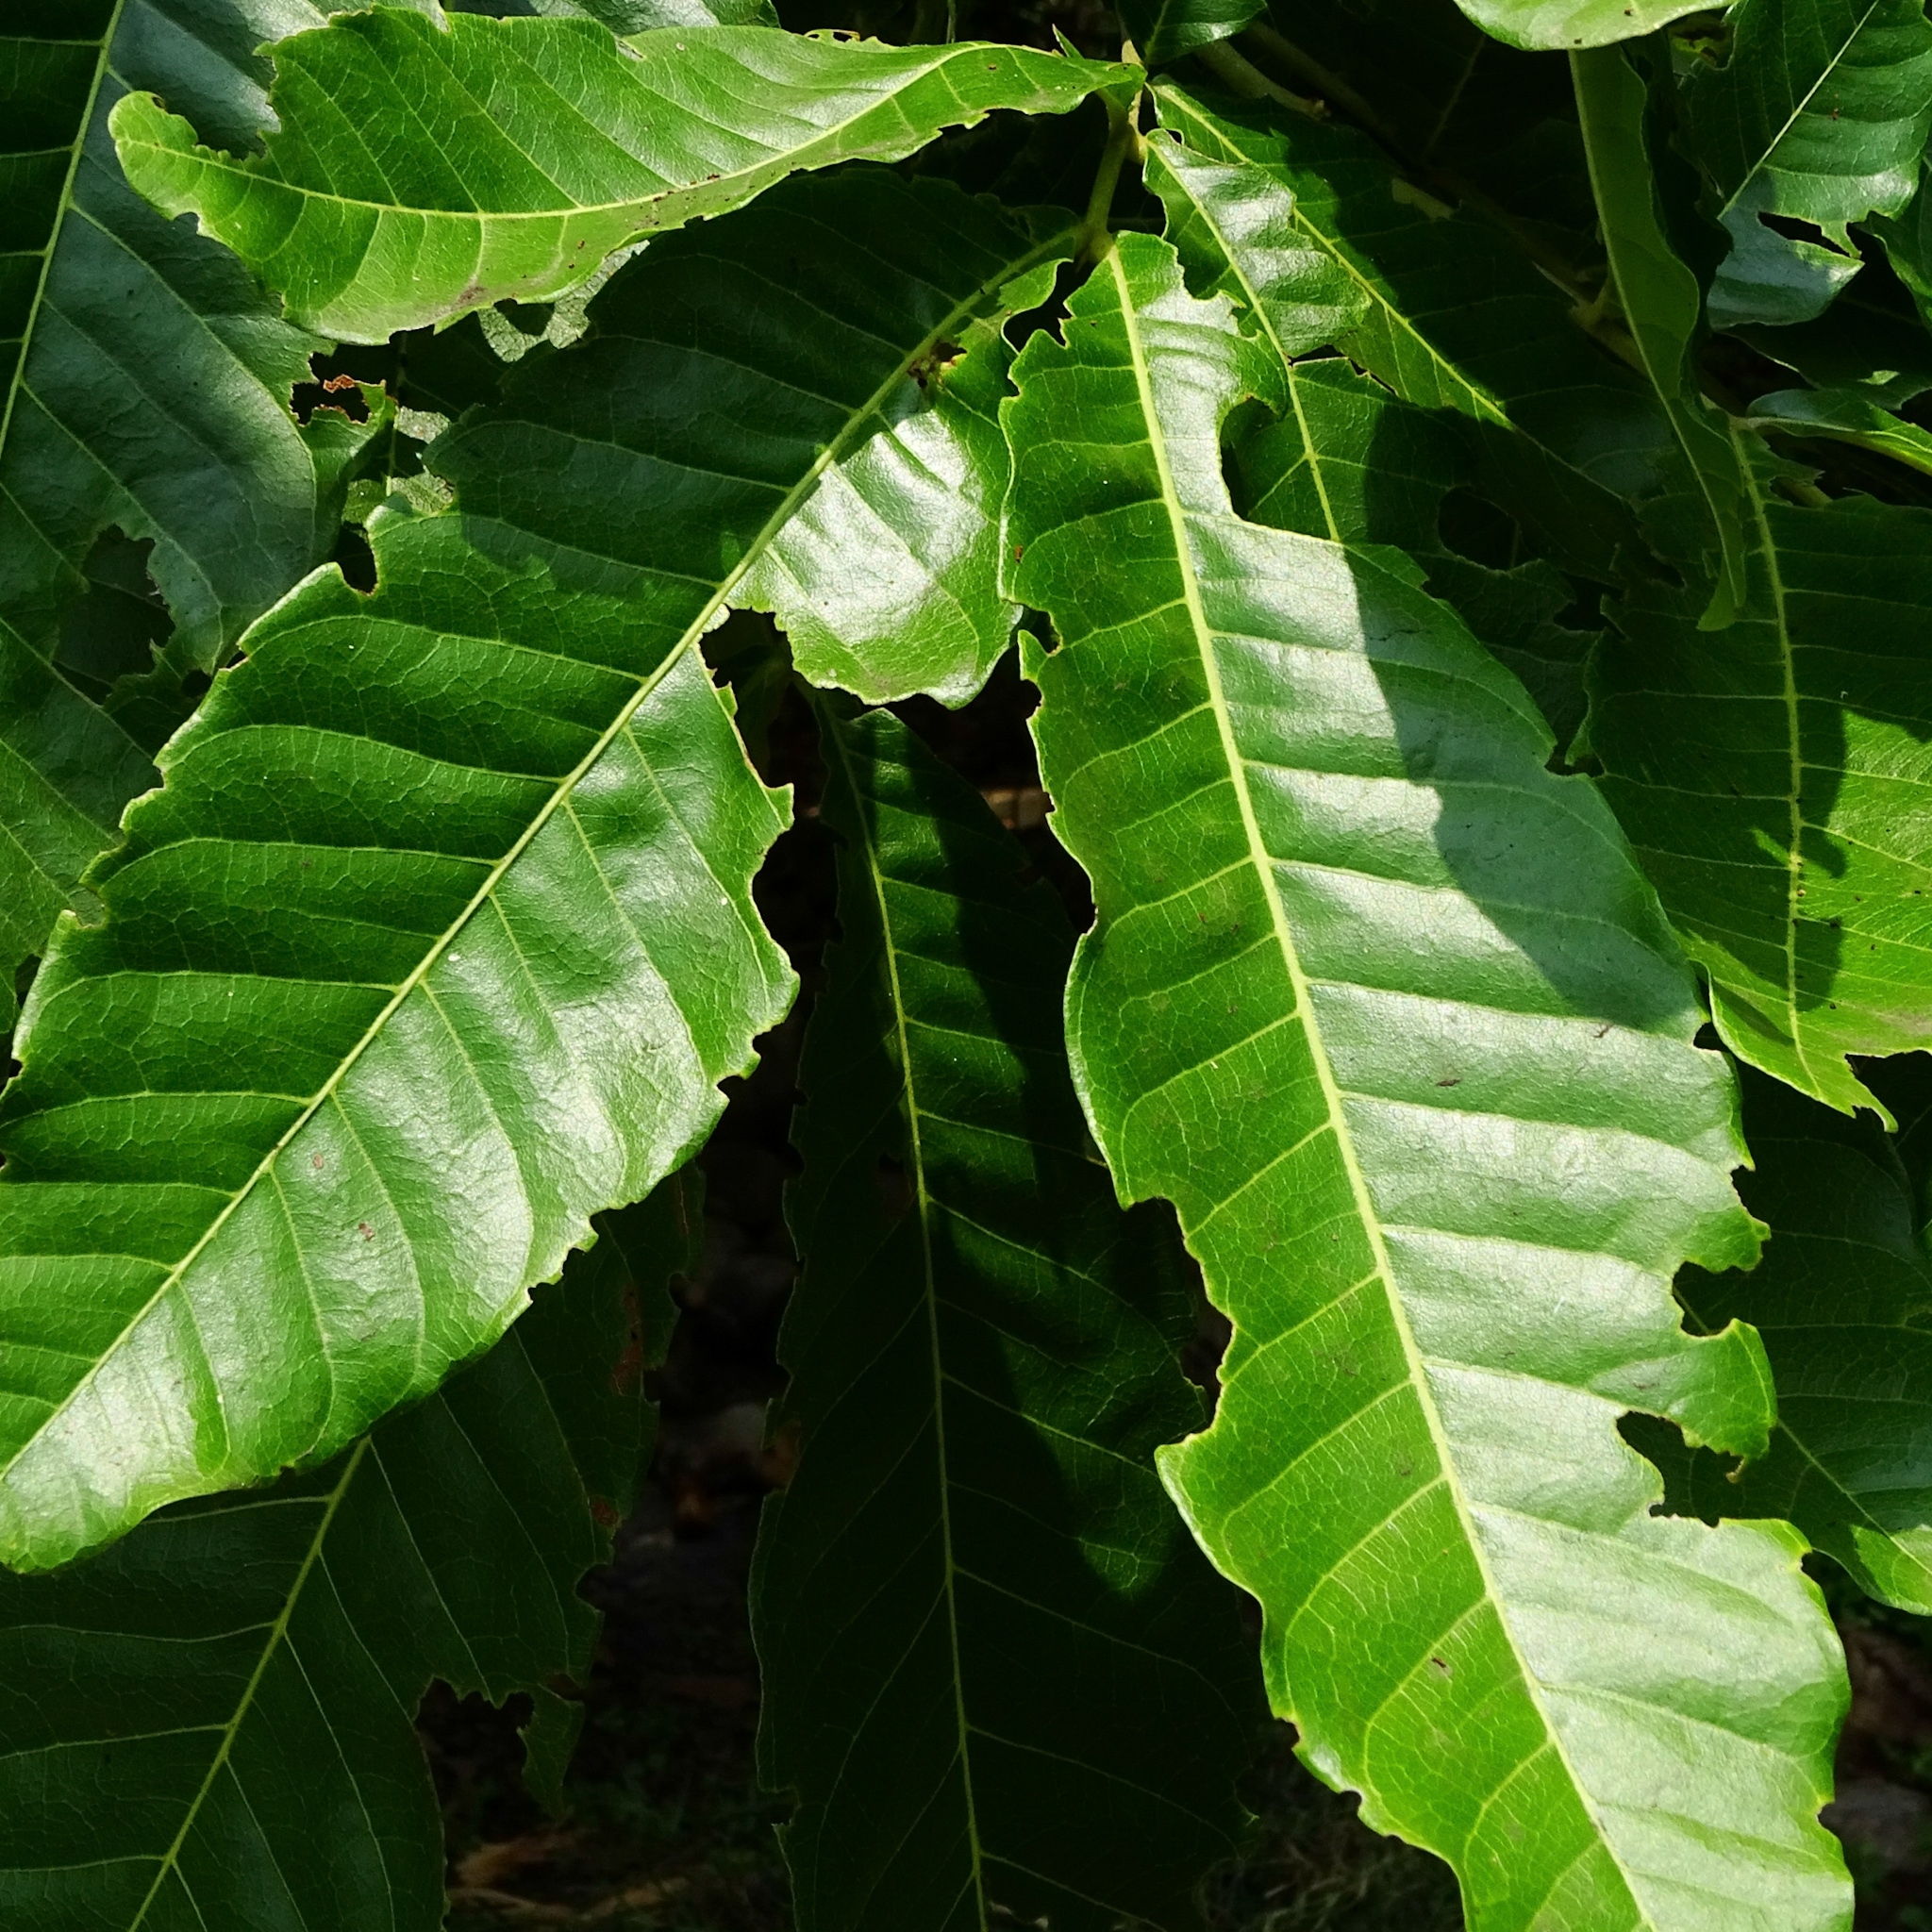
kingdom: Plantae
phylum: Tracheophyta
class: Magnoliopsida
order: Sapindales
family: Sapindaceae
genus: Schleichera
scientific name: Schleichera oleosa
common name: Malay lactree
